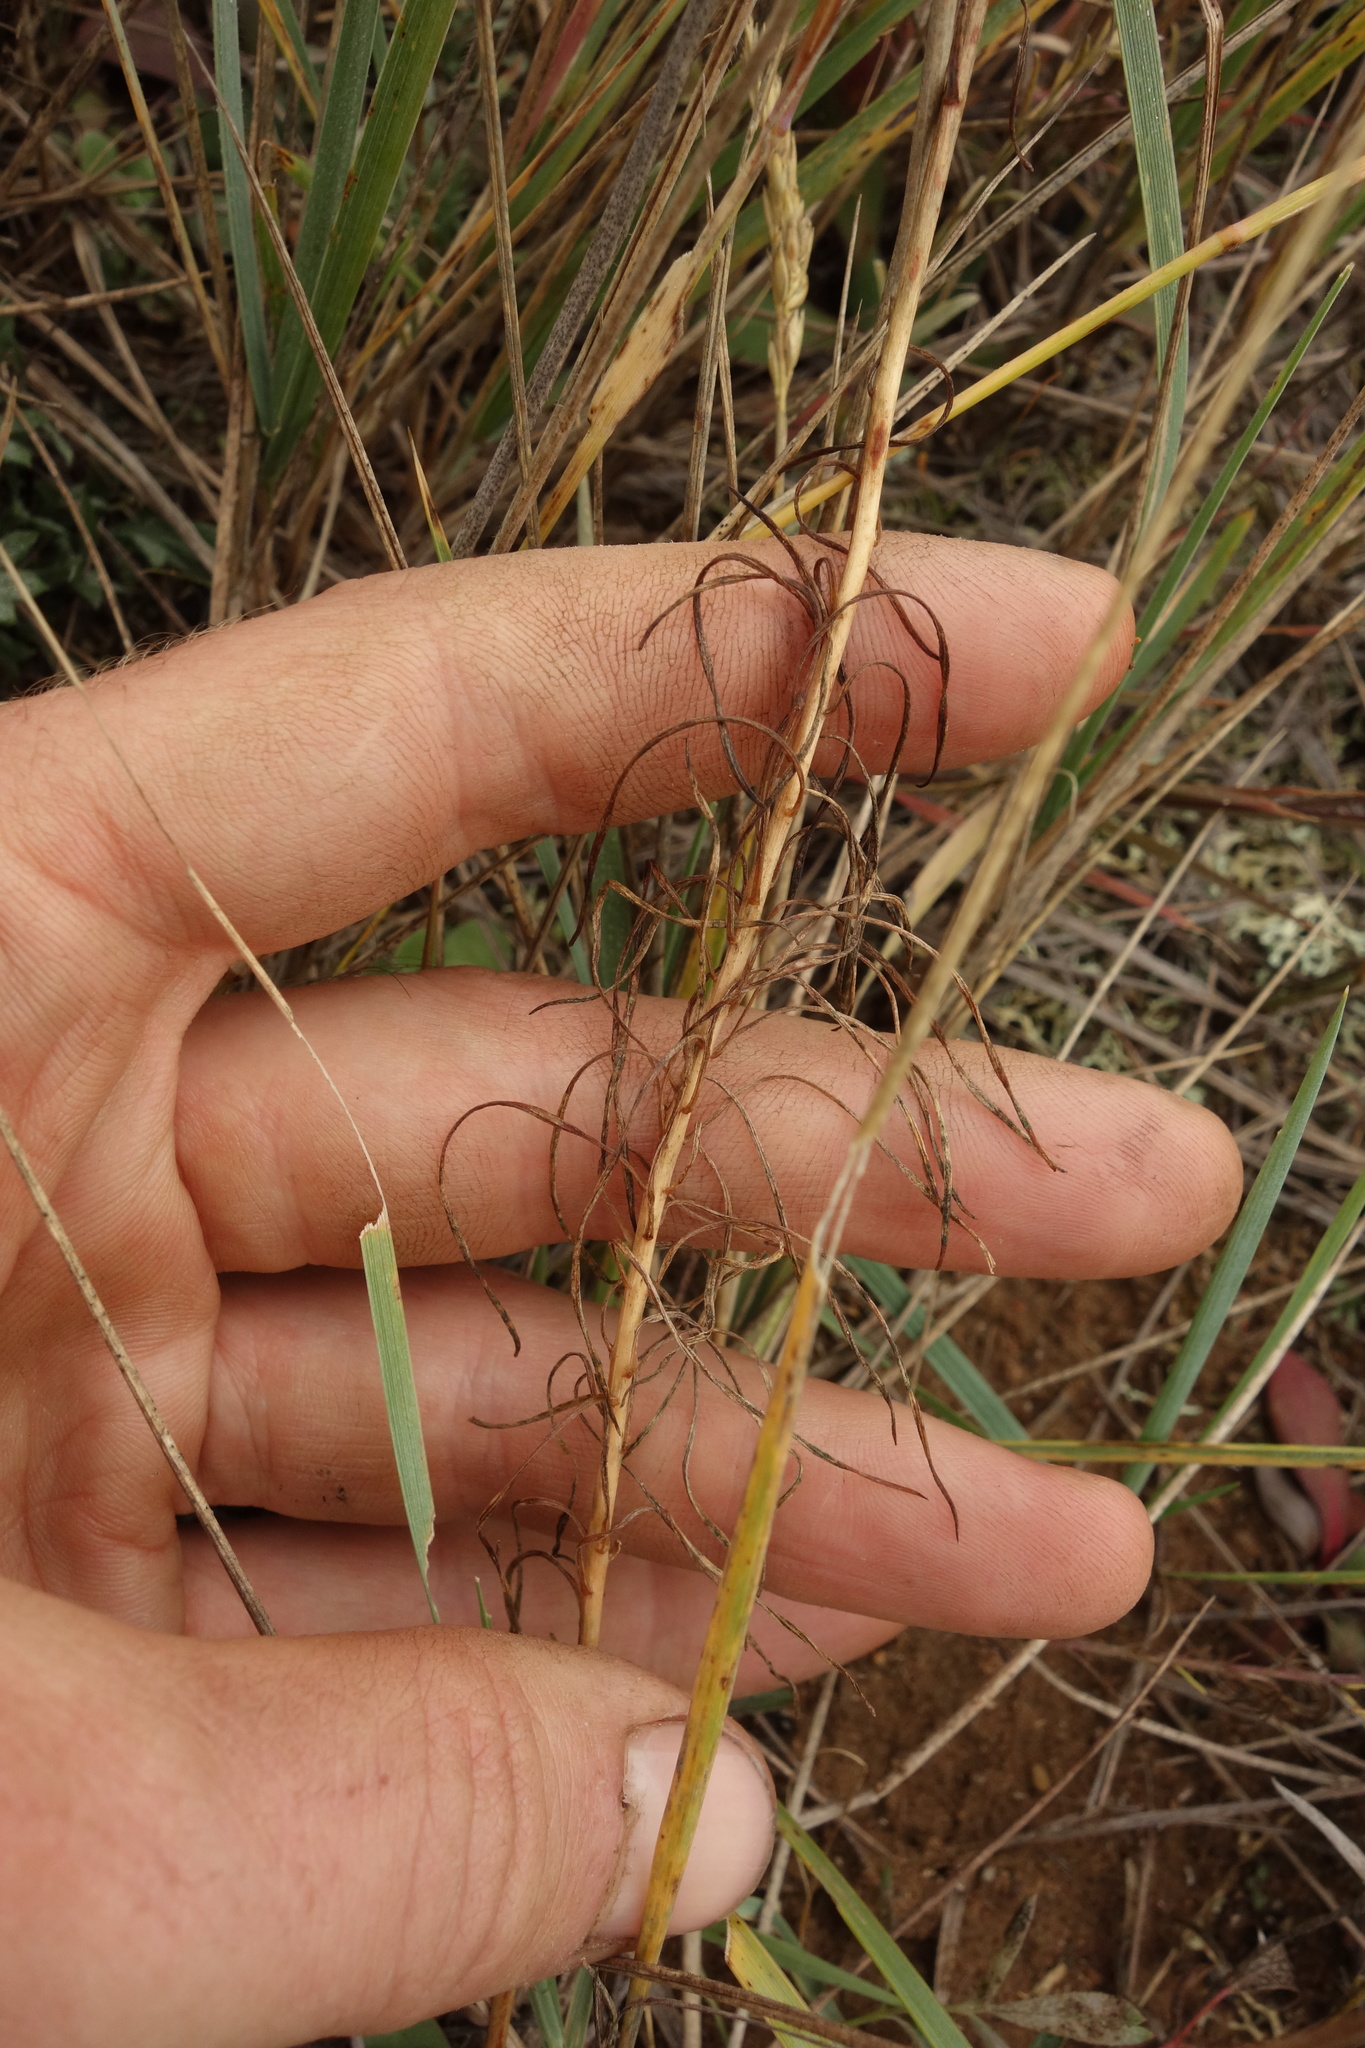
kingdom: Plantae
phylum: Tracheophyta
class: Liliopsida
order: Liliales
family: Liliaceae
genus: Lilium
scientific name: Lilium pumilum
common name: Coral lily
